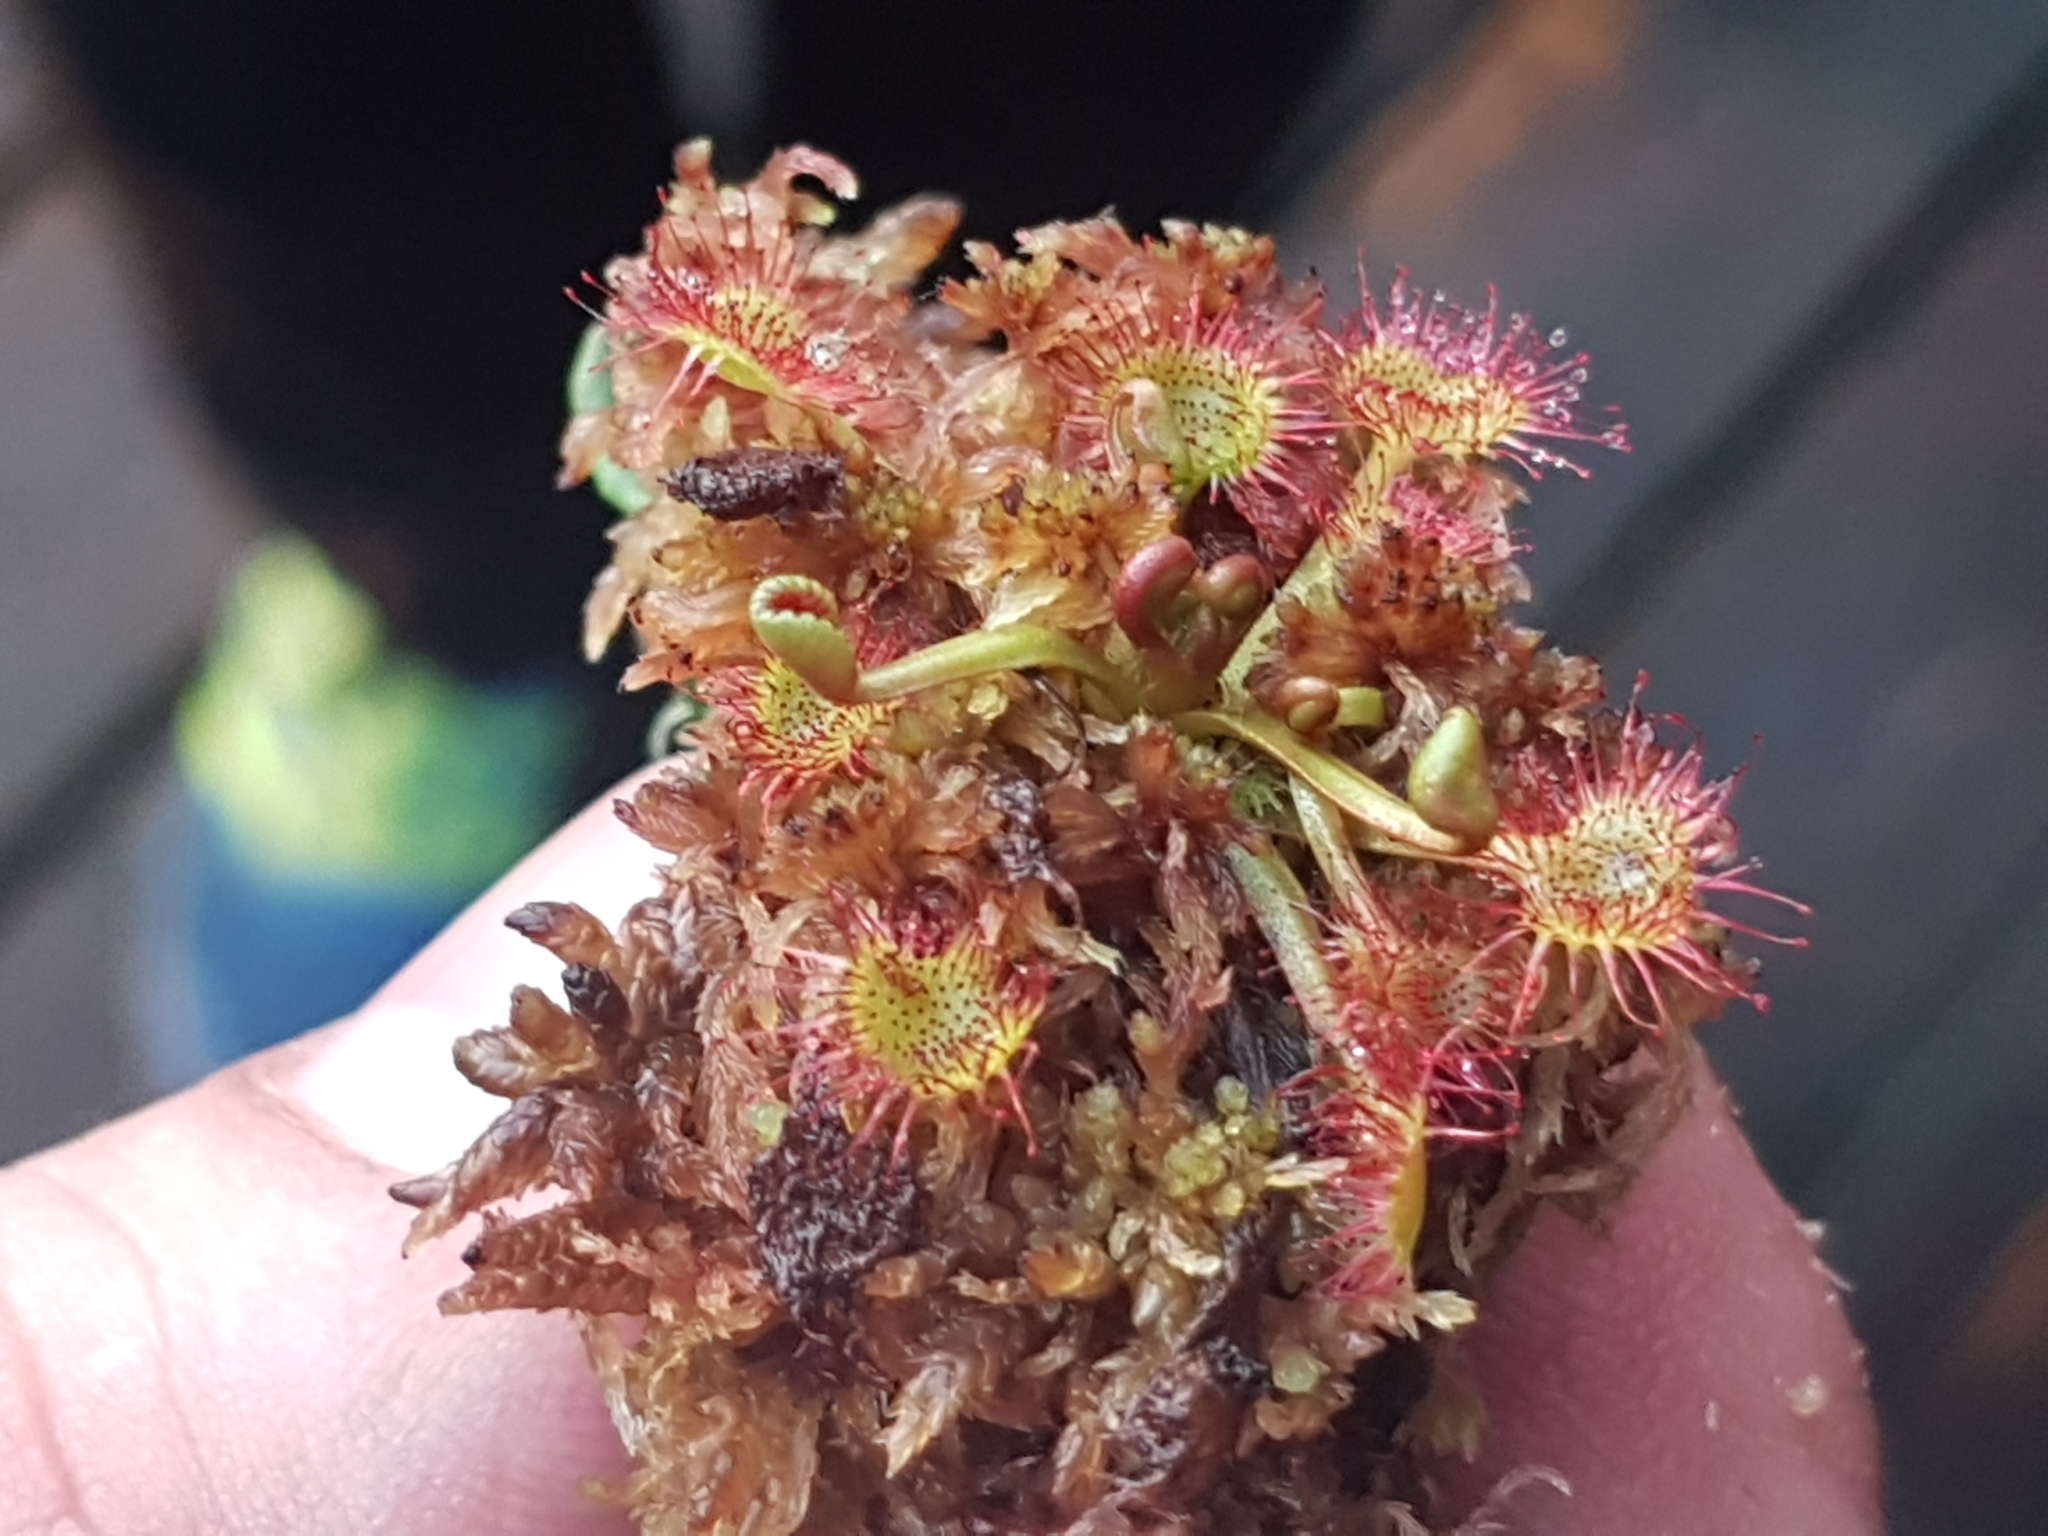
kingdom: Plantae
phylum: Tracheophyta
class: Magnoliopsida
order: Caryophyllales
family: Droseraceae
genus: Drosera
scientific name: Drosera rotundifolia
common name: Round-leaved sundew
